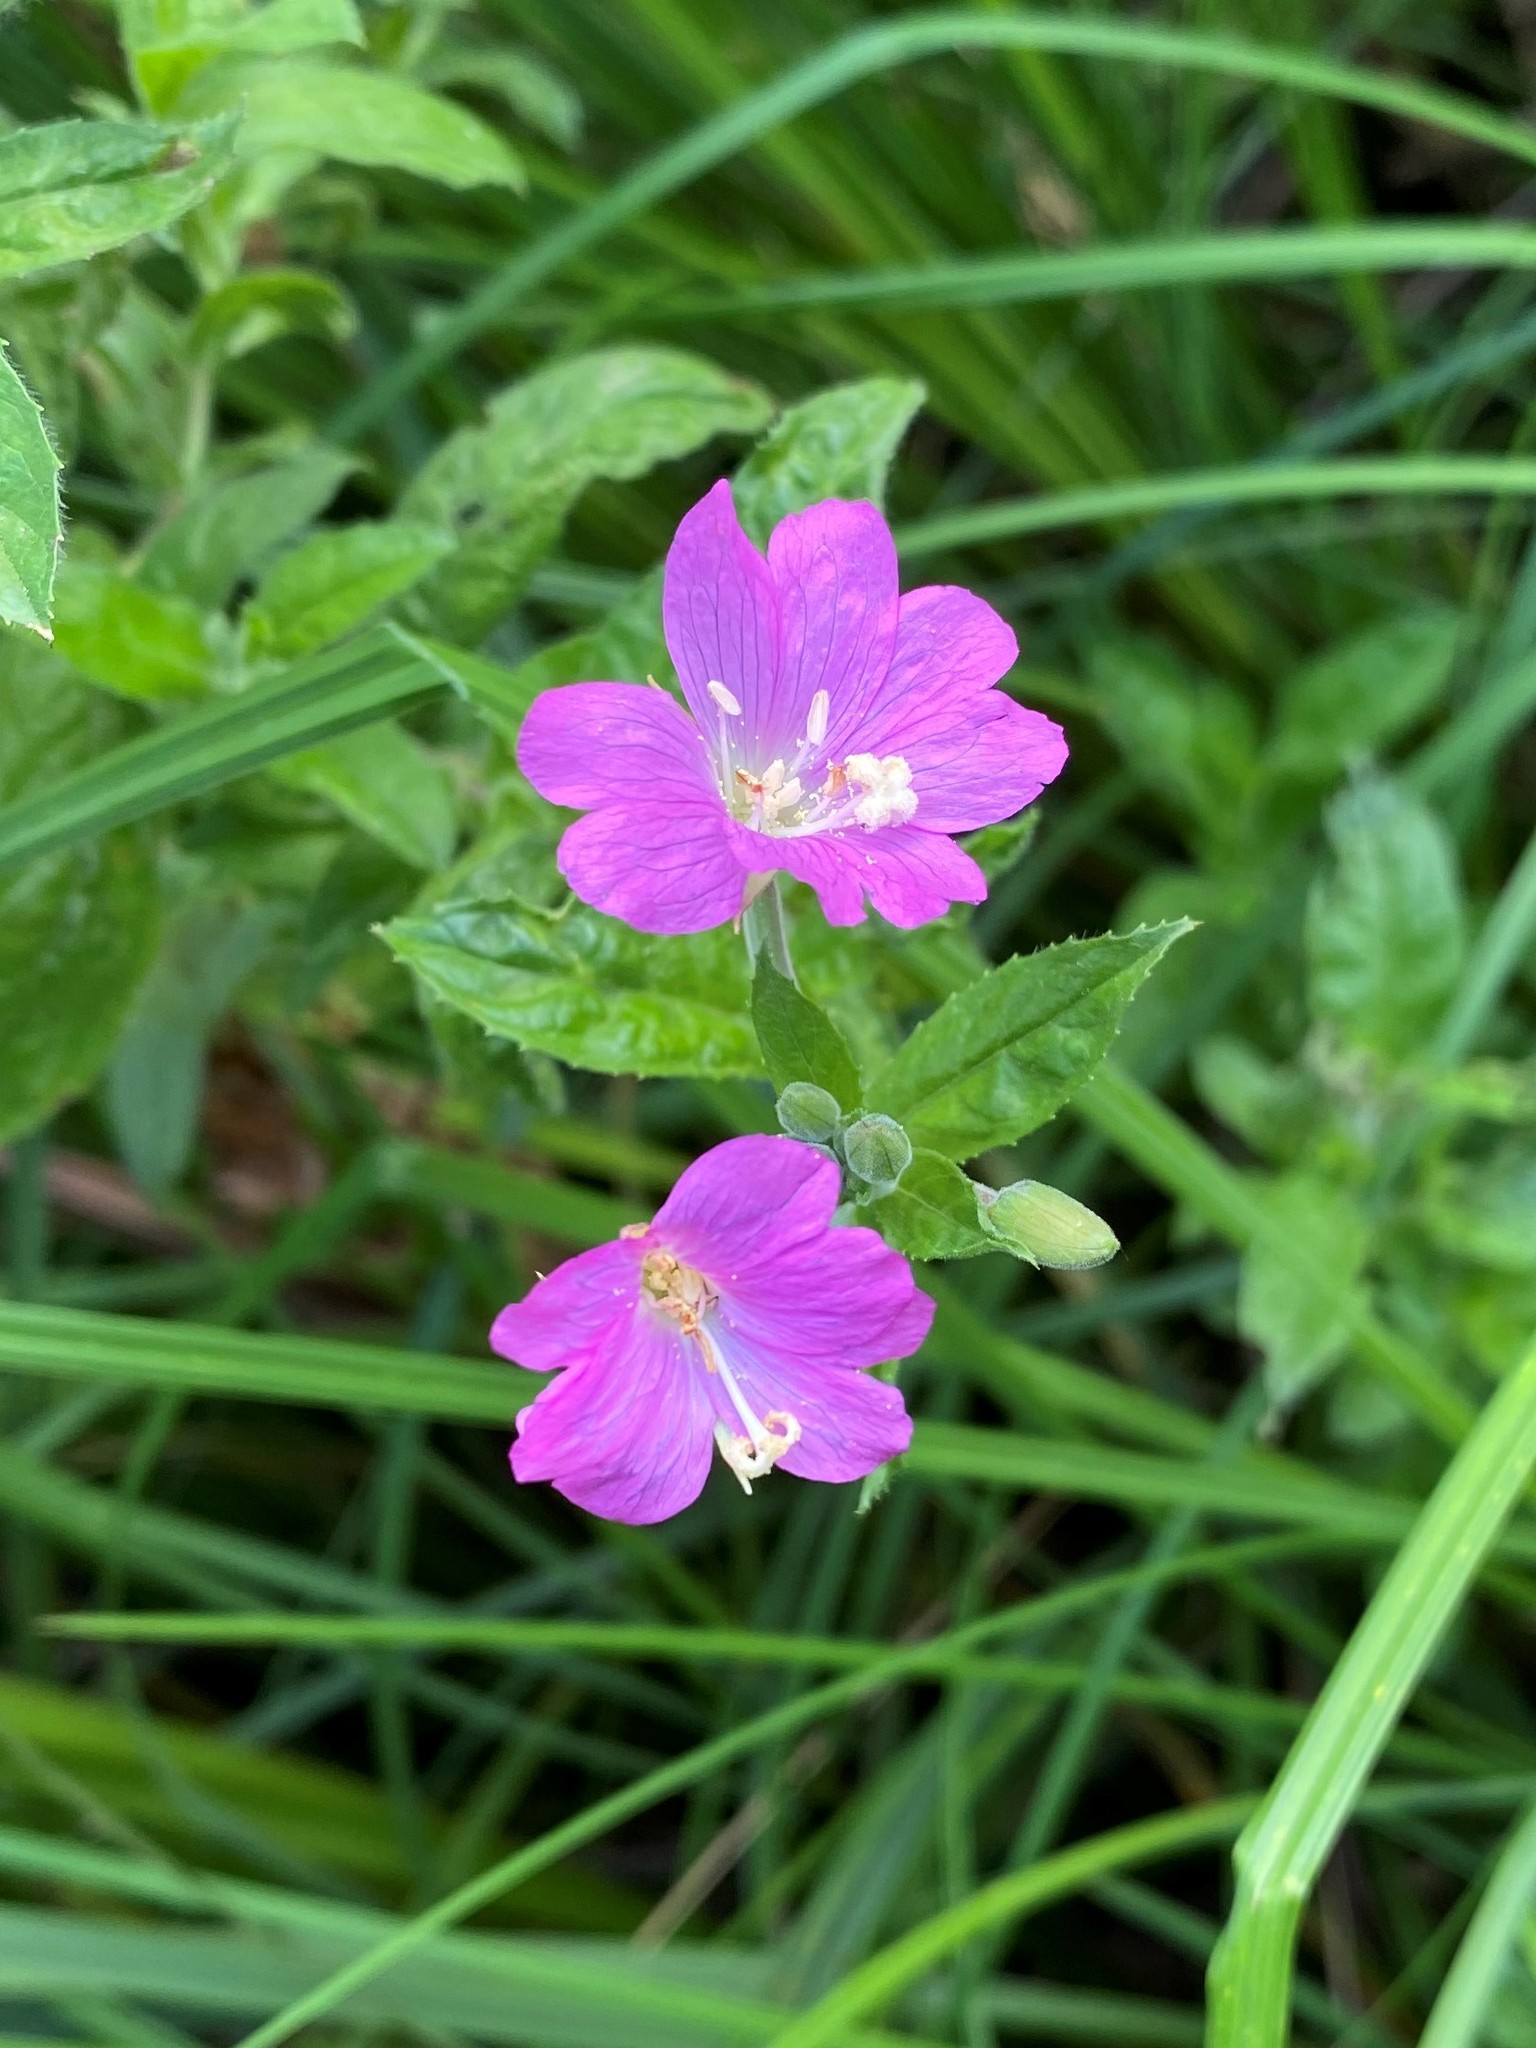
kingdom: Plantae
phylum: Tracheophyta
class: Magnoliopsida
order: Myrtales
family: Onagraceae
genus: Epilobium
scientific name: Epilobium hirsutum
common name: Great willowherb
